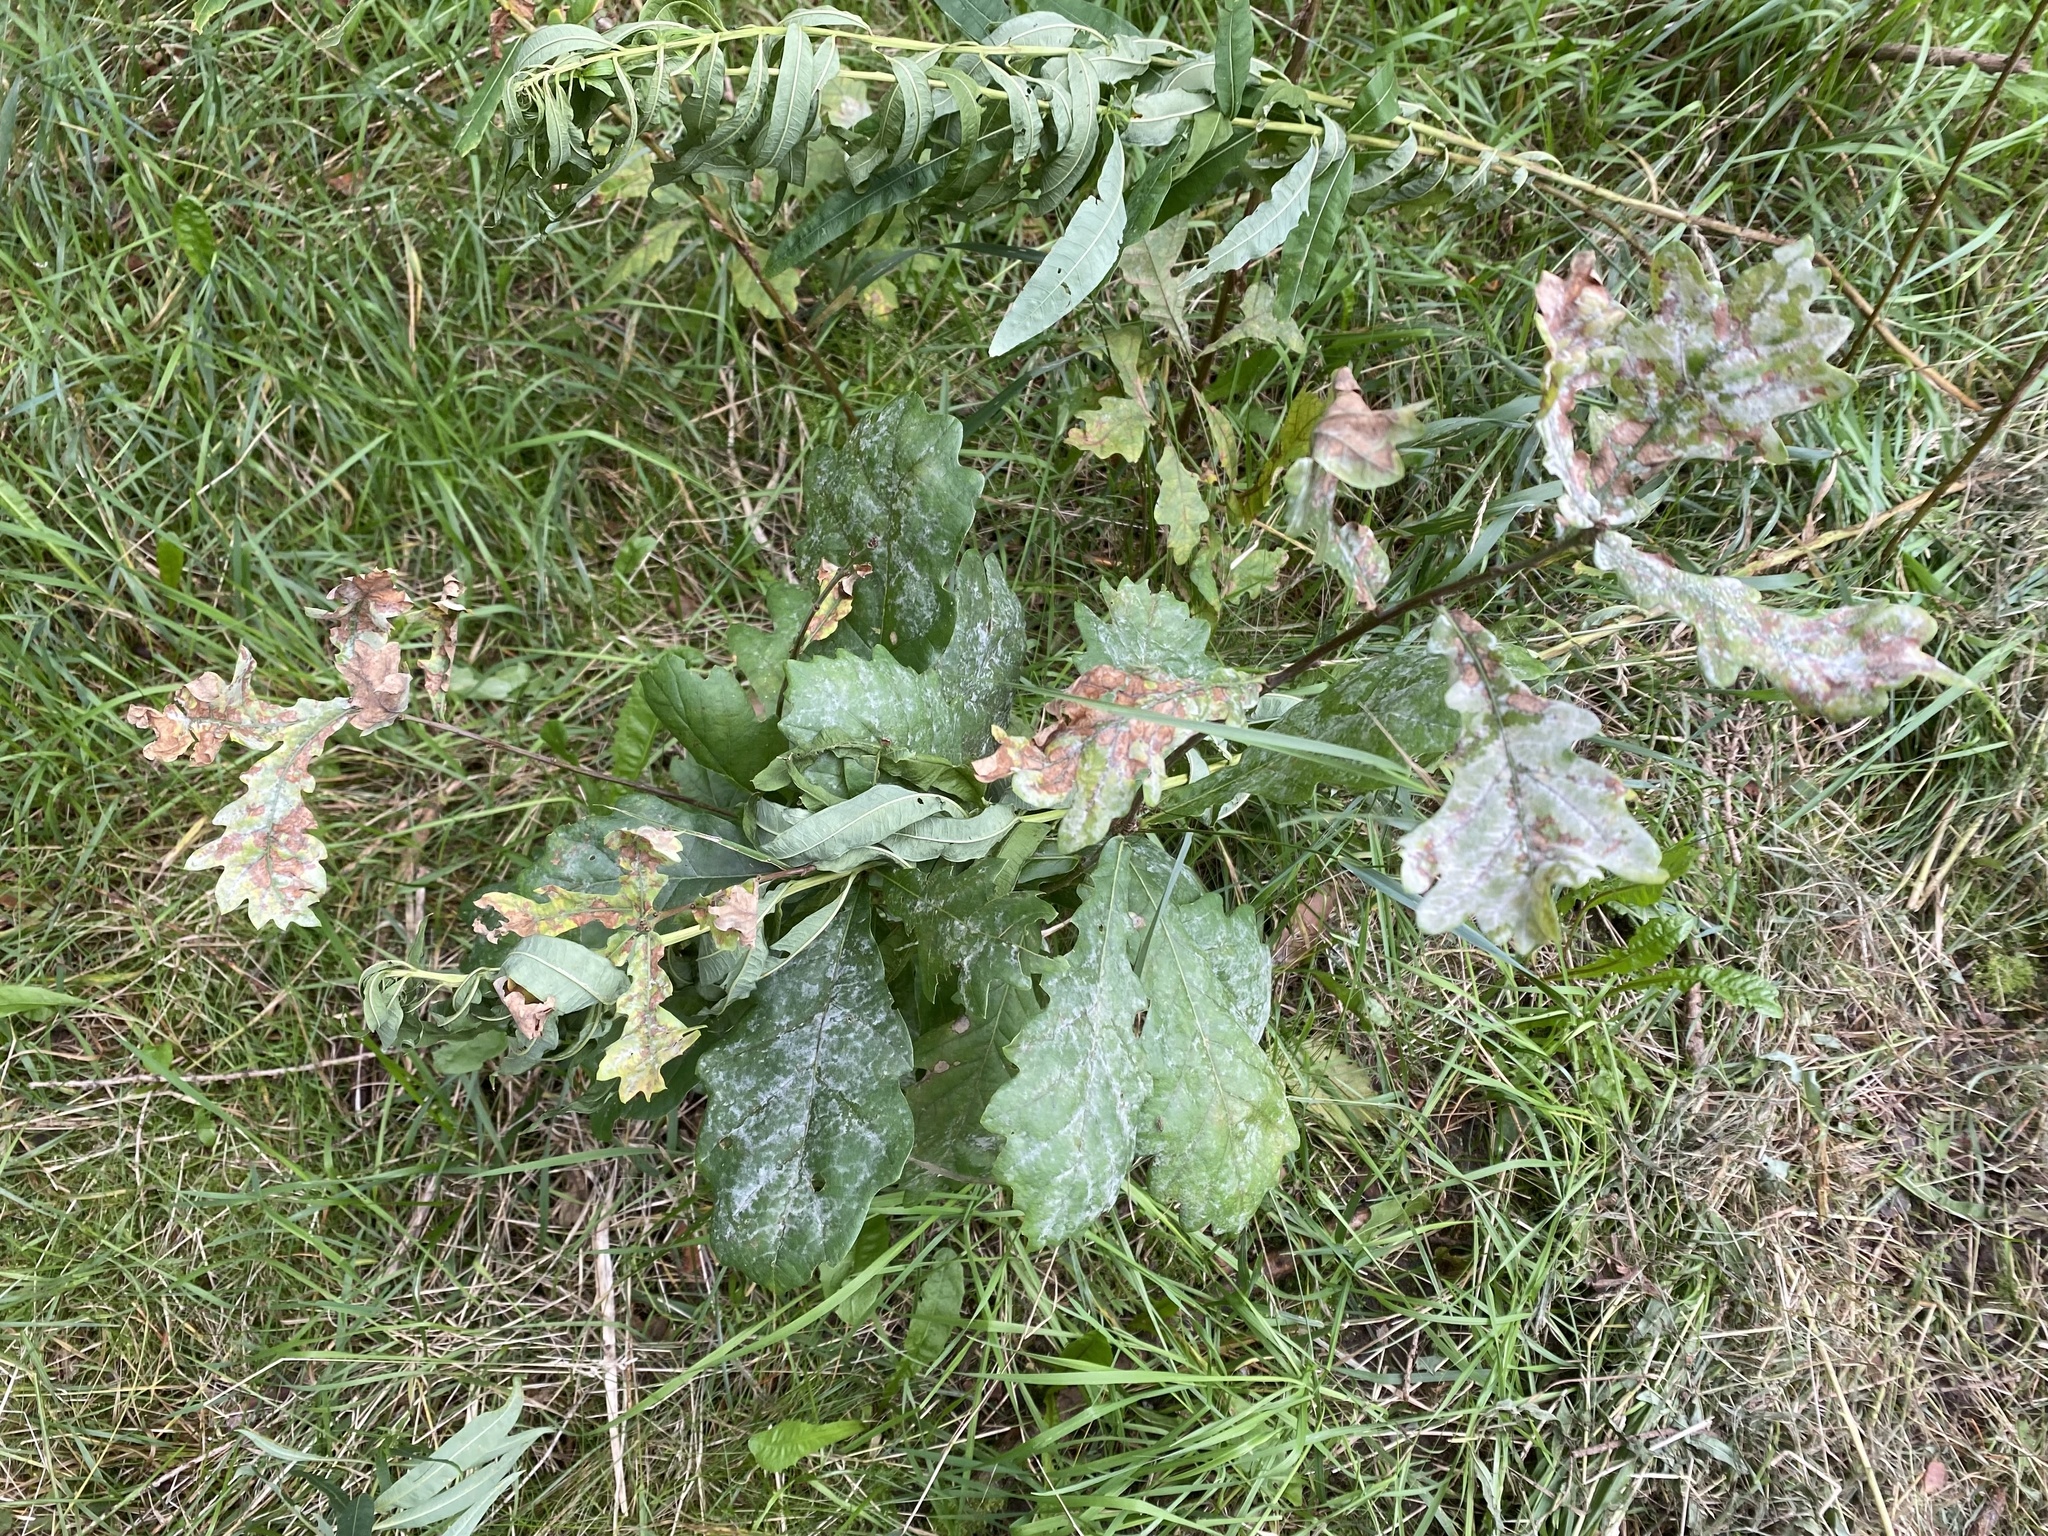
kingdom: Fungi
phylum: Ascomycota
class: Leotiomycetes
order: Helotiales
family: Erysiphaceae
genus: Erysiphe
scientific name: Erysiphe alphitoides
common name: Oak mildew
